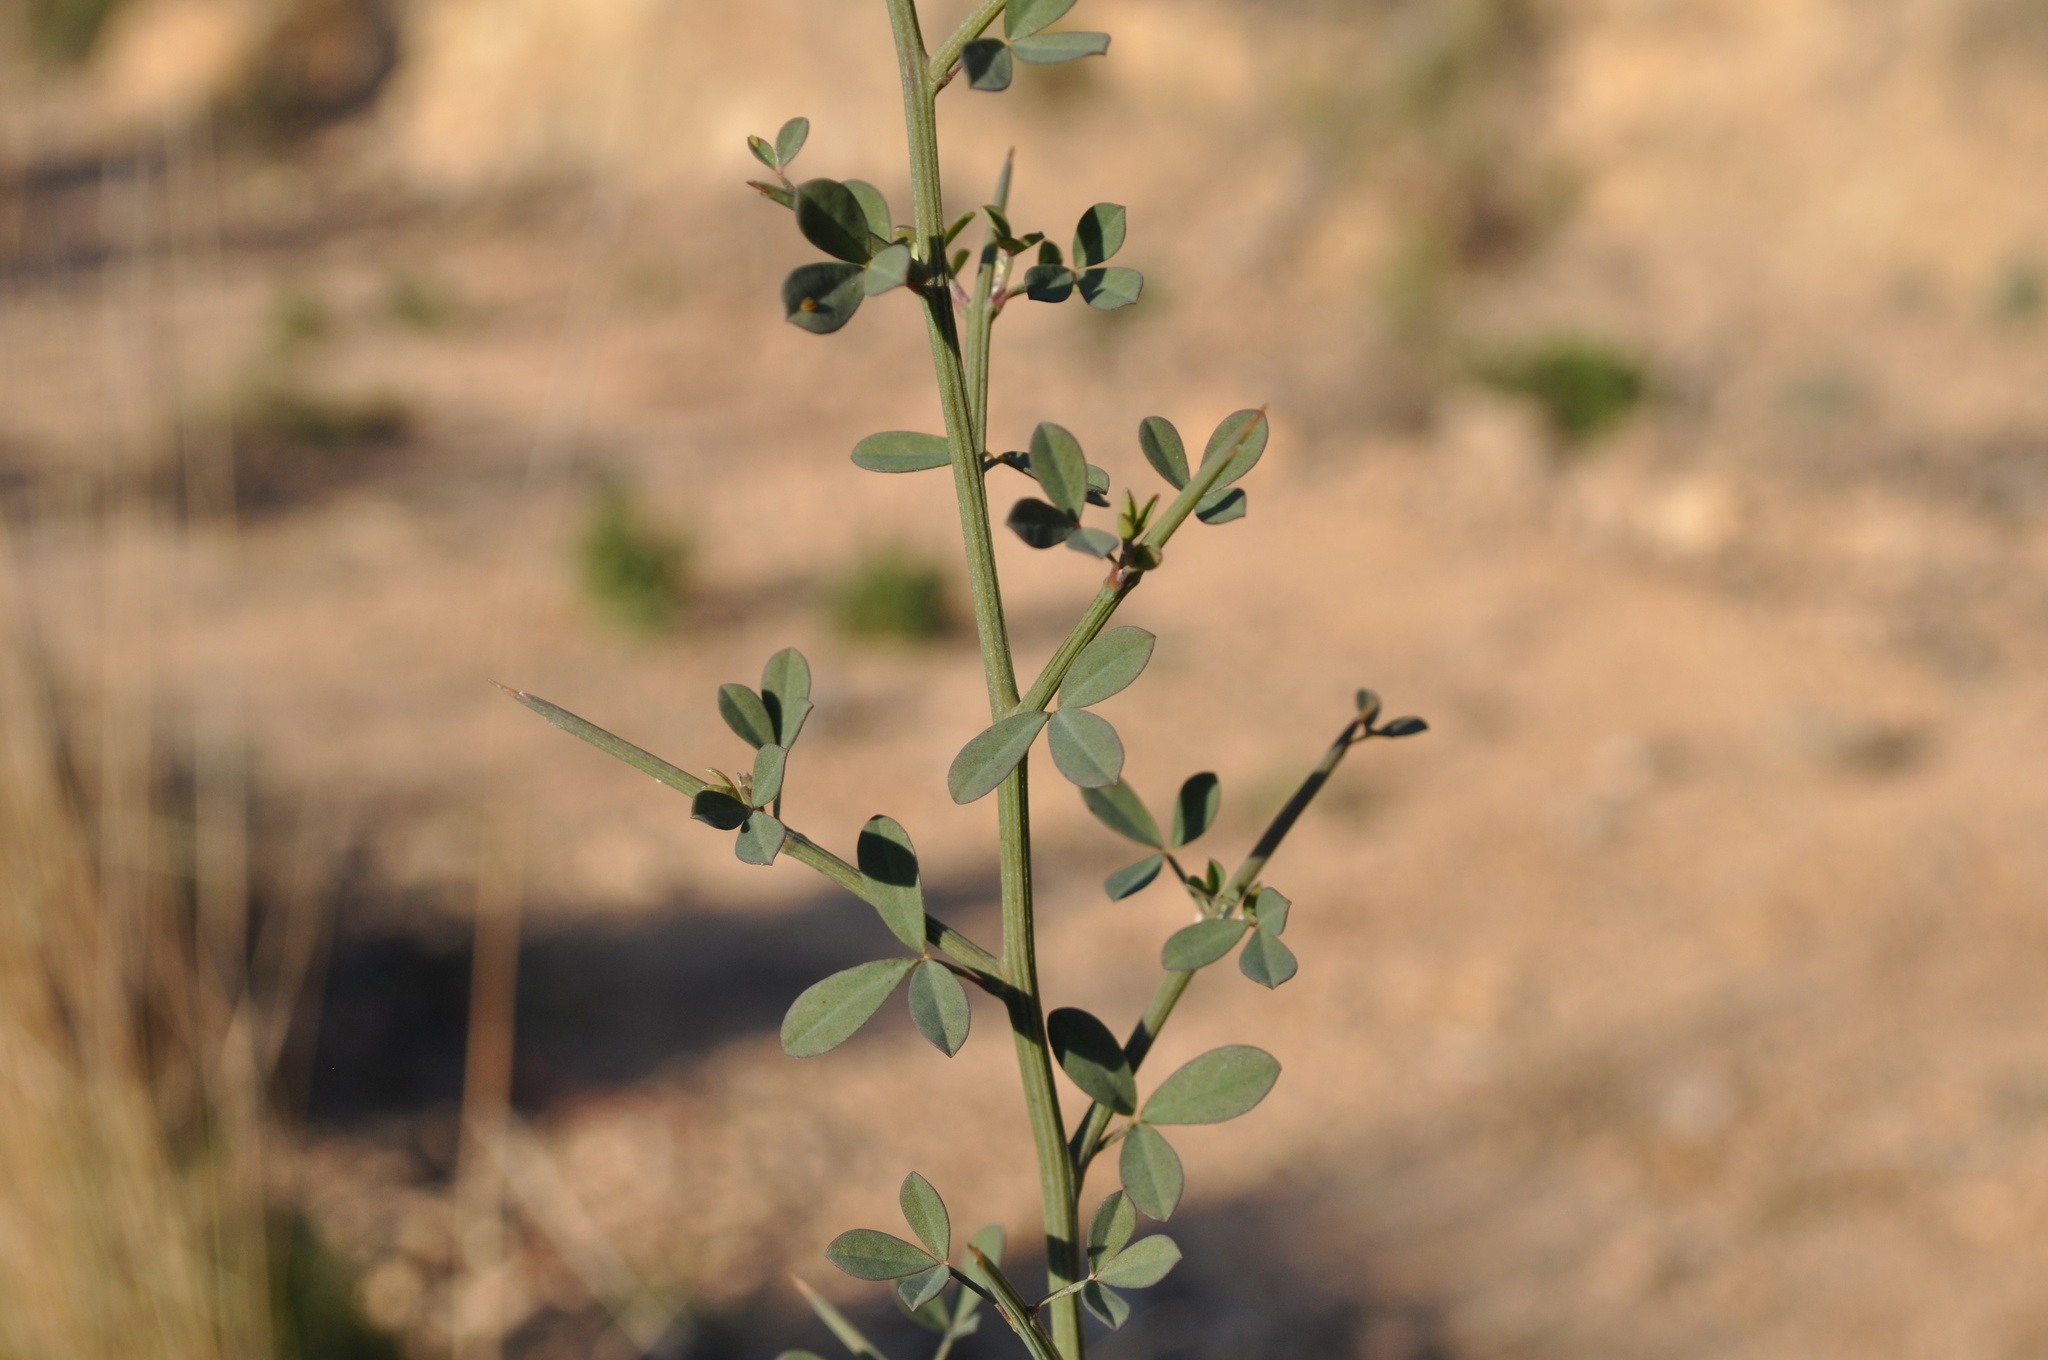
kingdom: Plantae
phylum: Tracheophyta
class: Magnoliopsida
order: Fabales
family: Fabaceae
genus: Calicotome
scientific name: Calicotome spinosa
